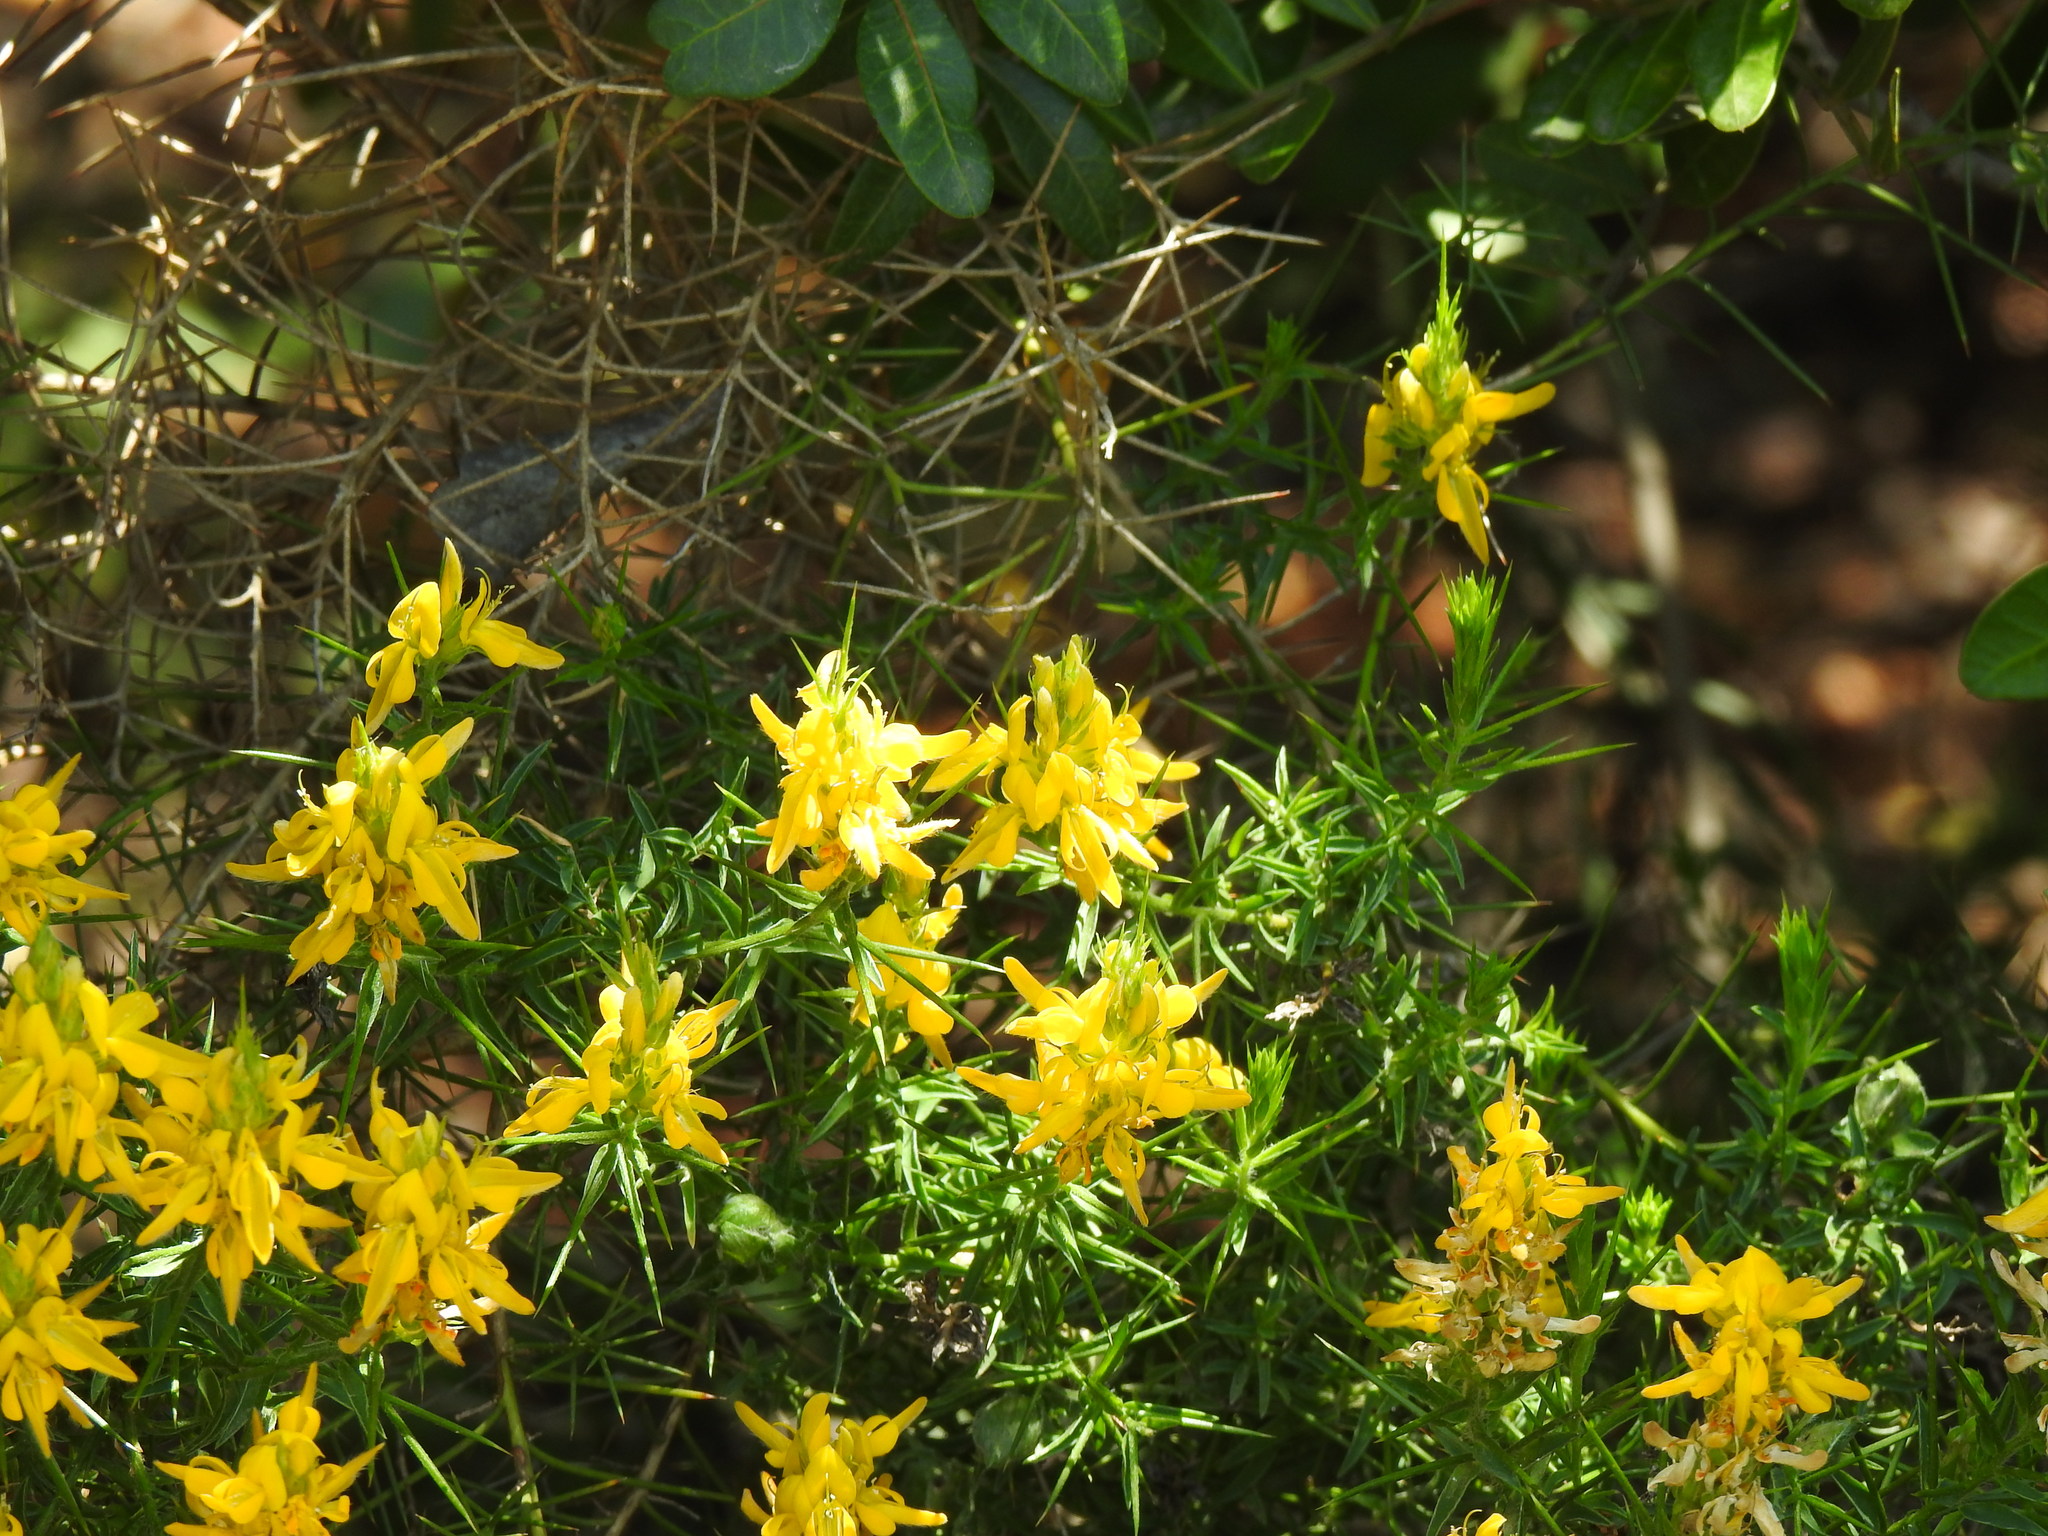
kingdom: Plantae
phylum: Tracheophyta
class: Magnoliopsida
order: Fabales
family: Fabaceae
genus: Genista
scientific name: Genista hirsuta
